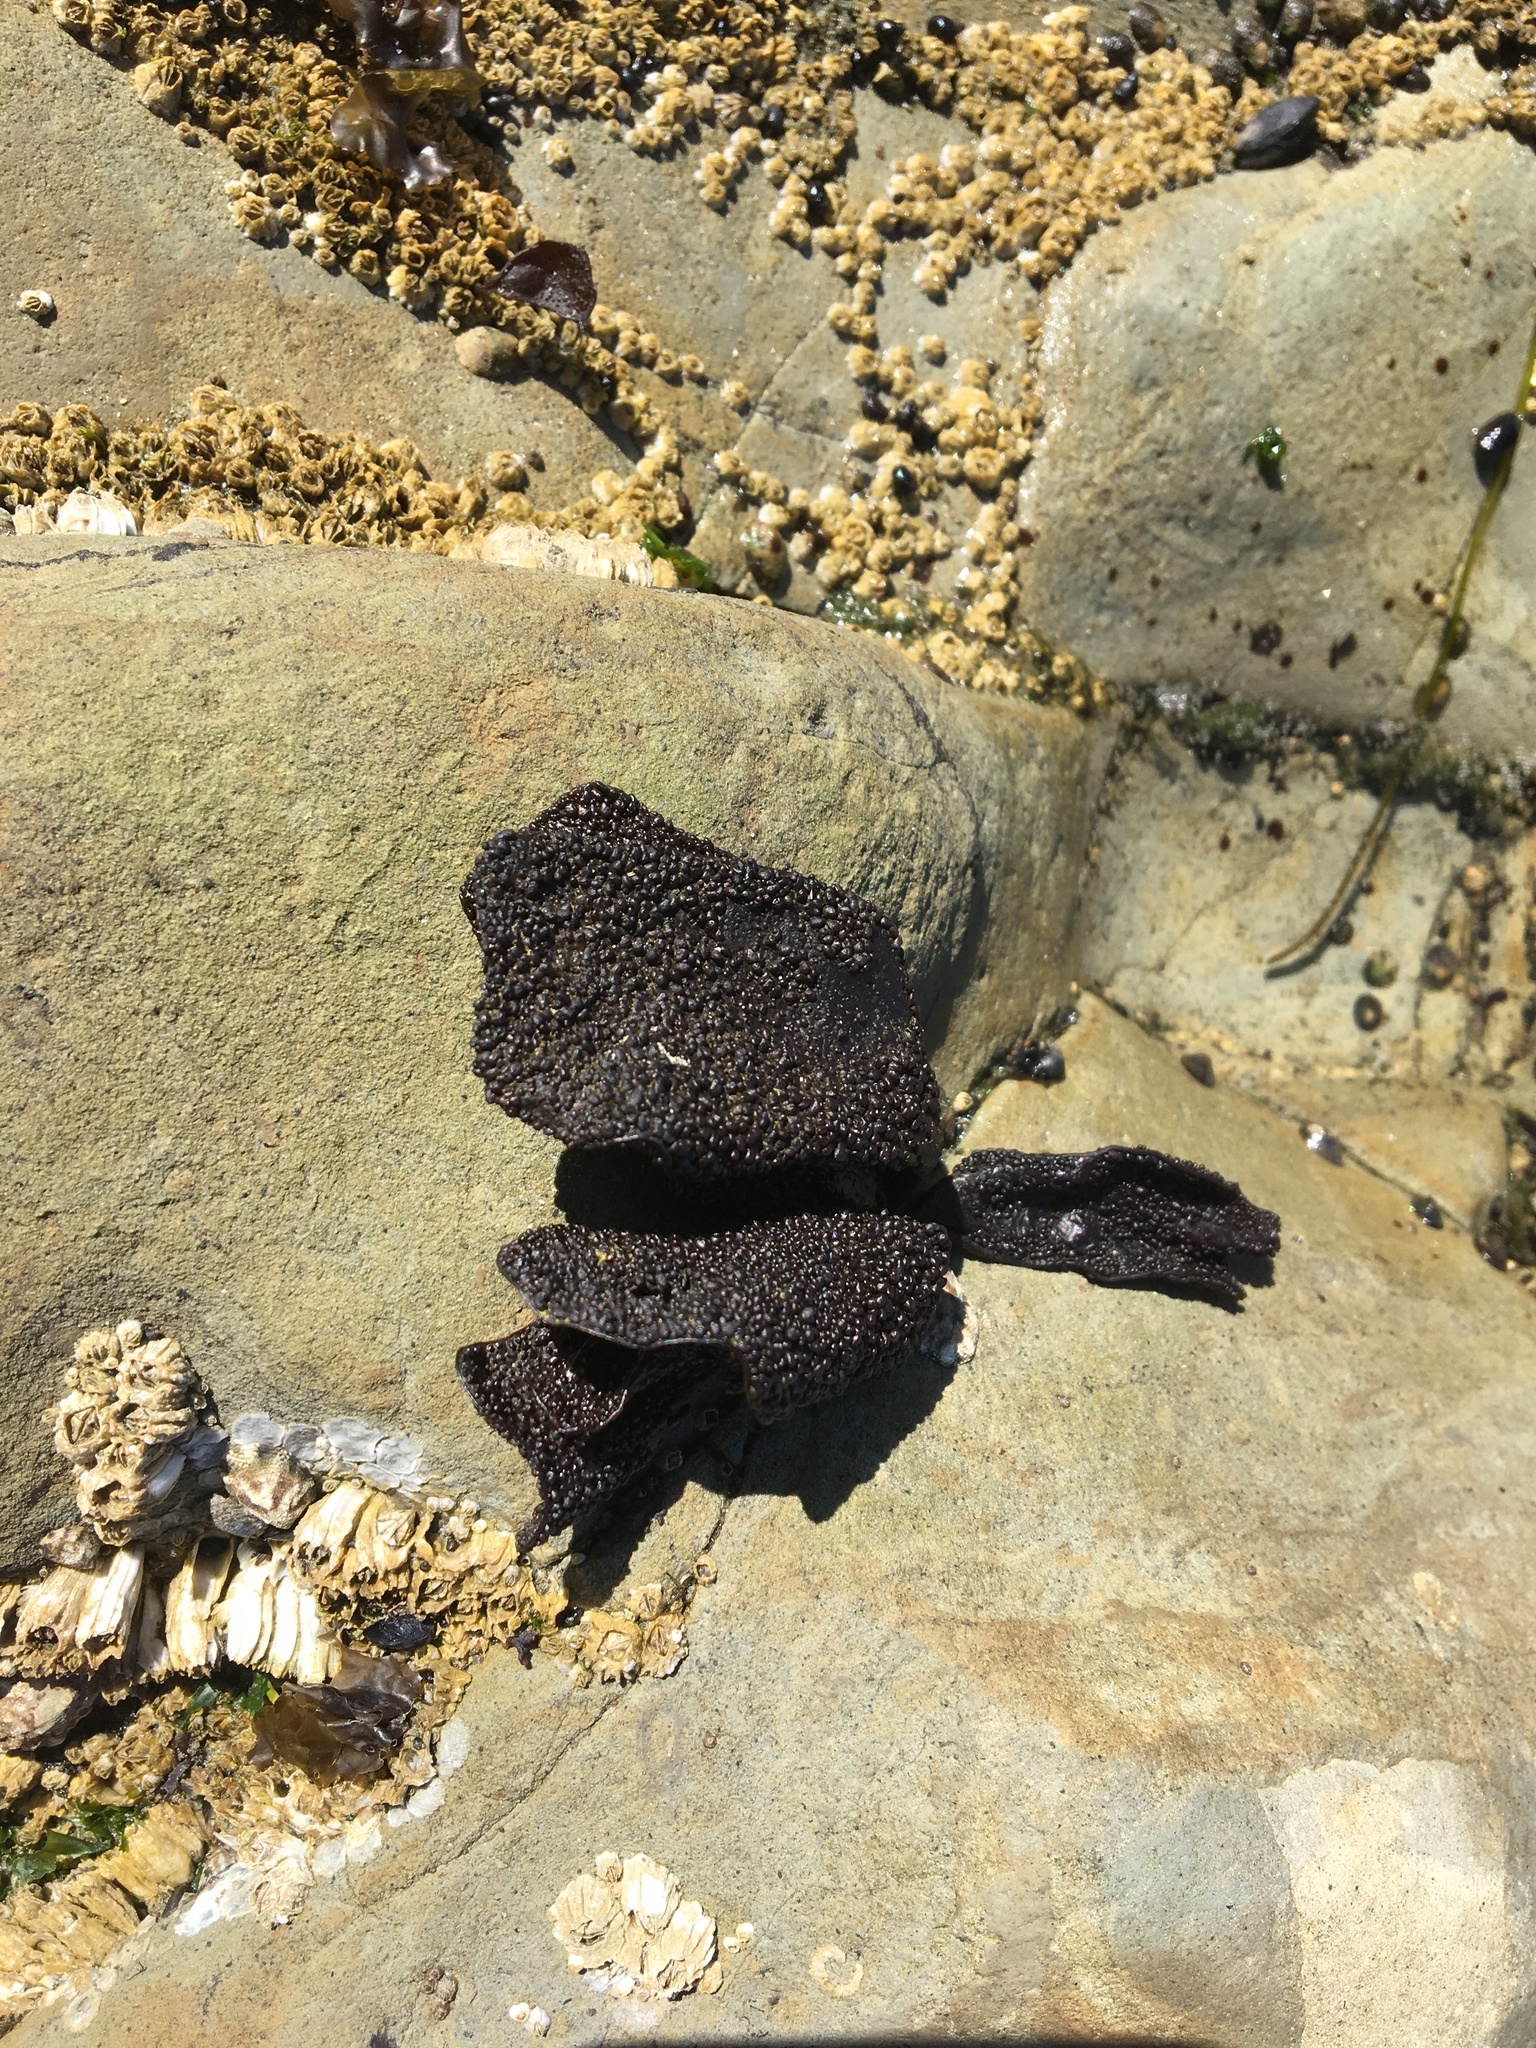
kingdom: Plantae
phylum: Rhodophyta
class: Florideophyceae
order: Gigartinales
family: Phyllophoraceae
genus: Mastocarpus
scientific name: Mastocarpus papillatus
